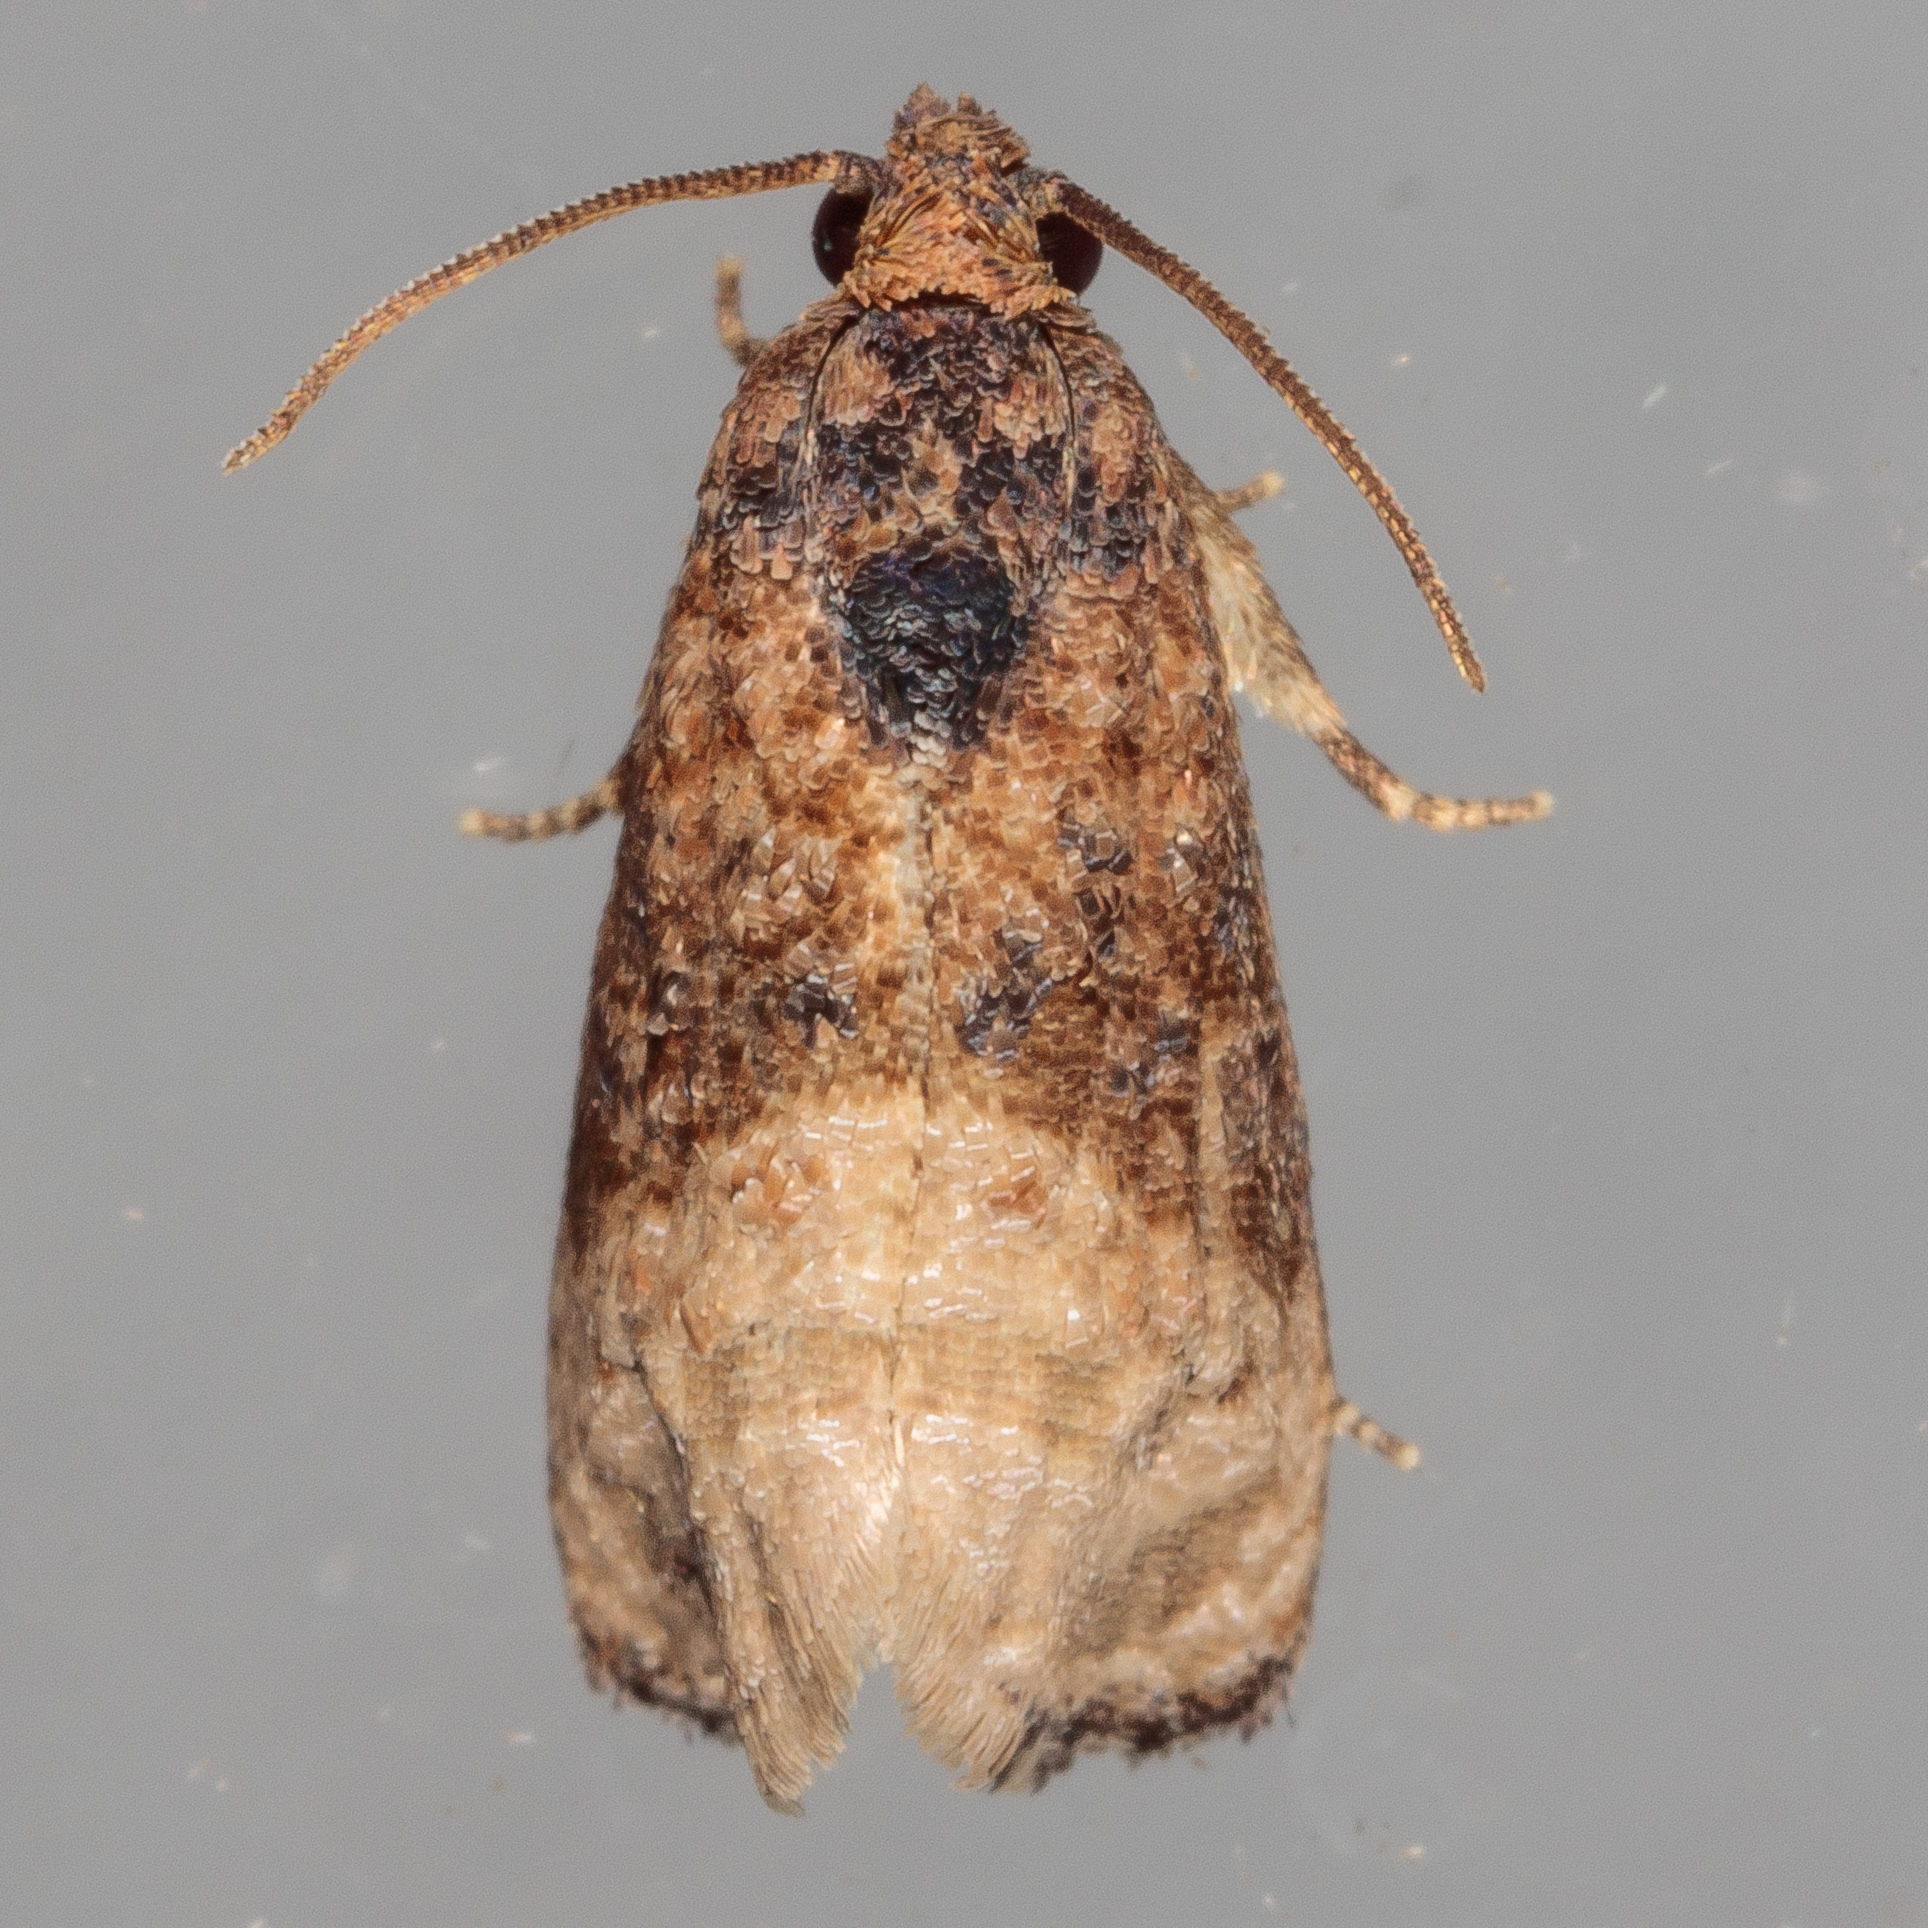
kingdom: Animalia
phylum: Arthropoda
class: Insecta
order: Lepidoptera
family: Tortricidae
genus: Ecdytolopha
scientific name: Ecdytolopha mana
